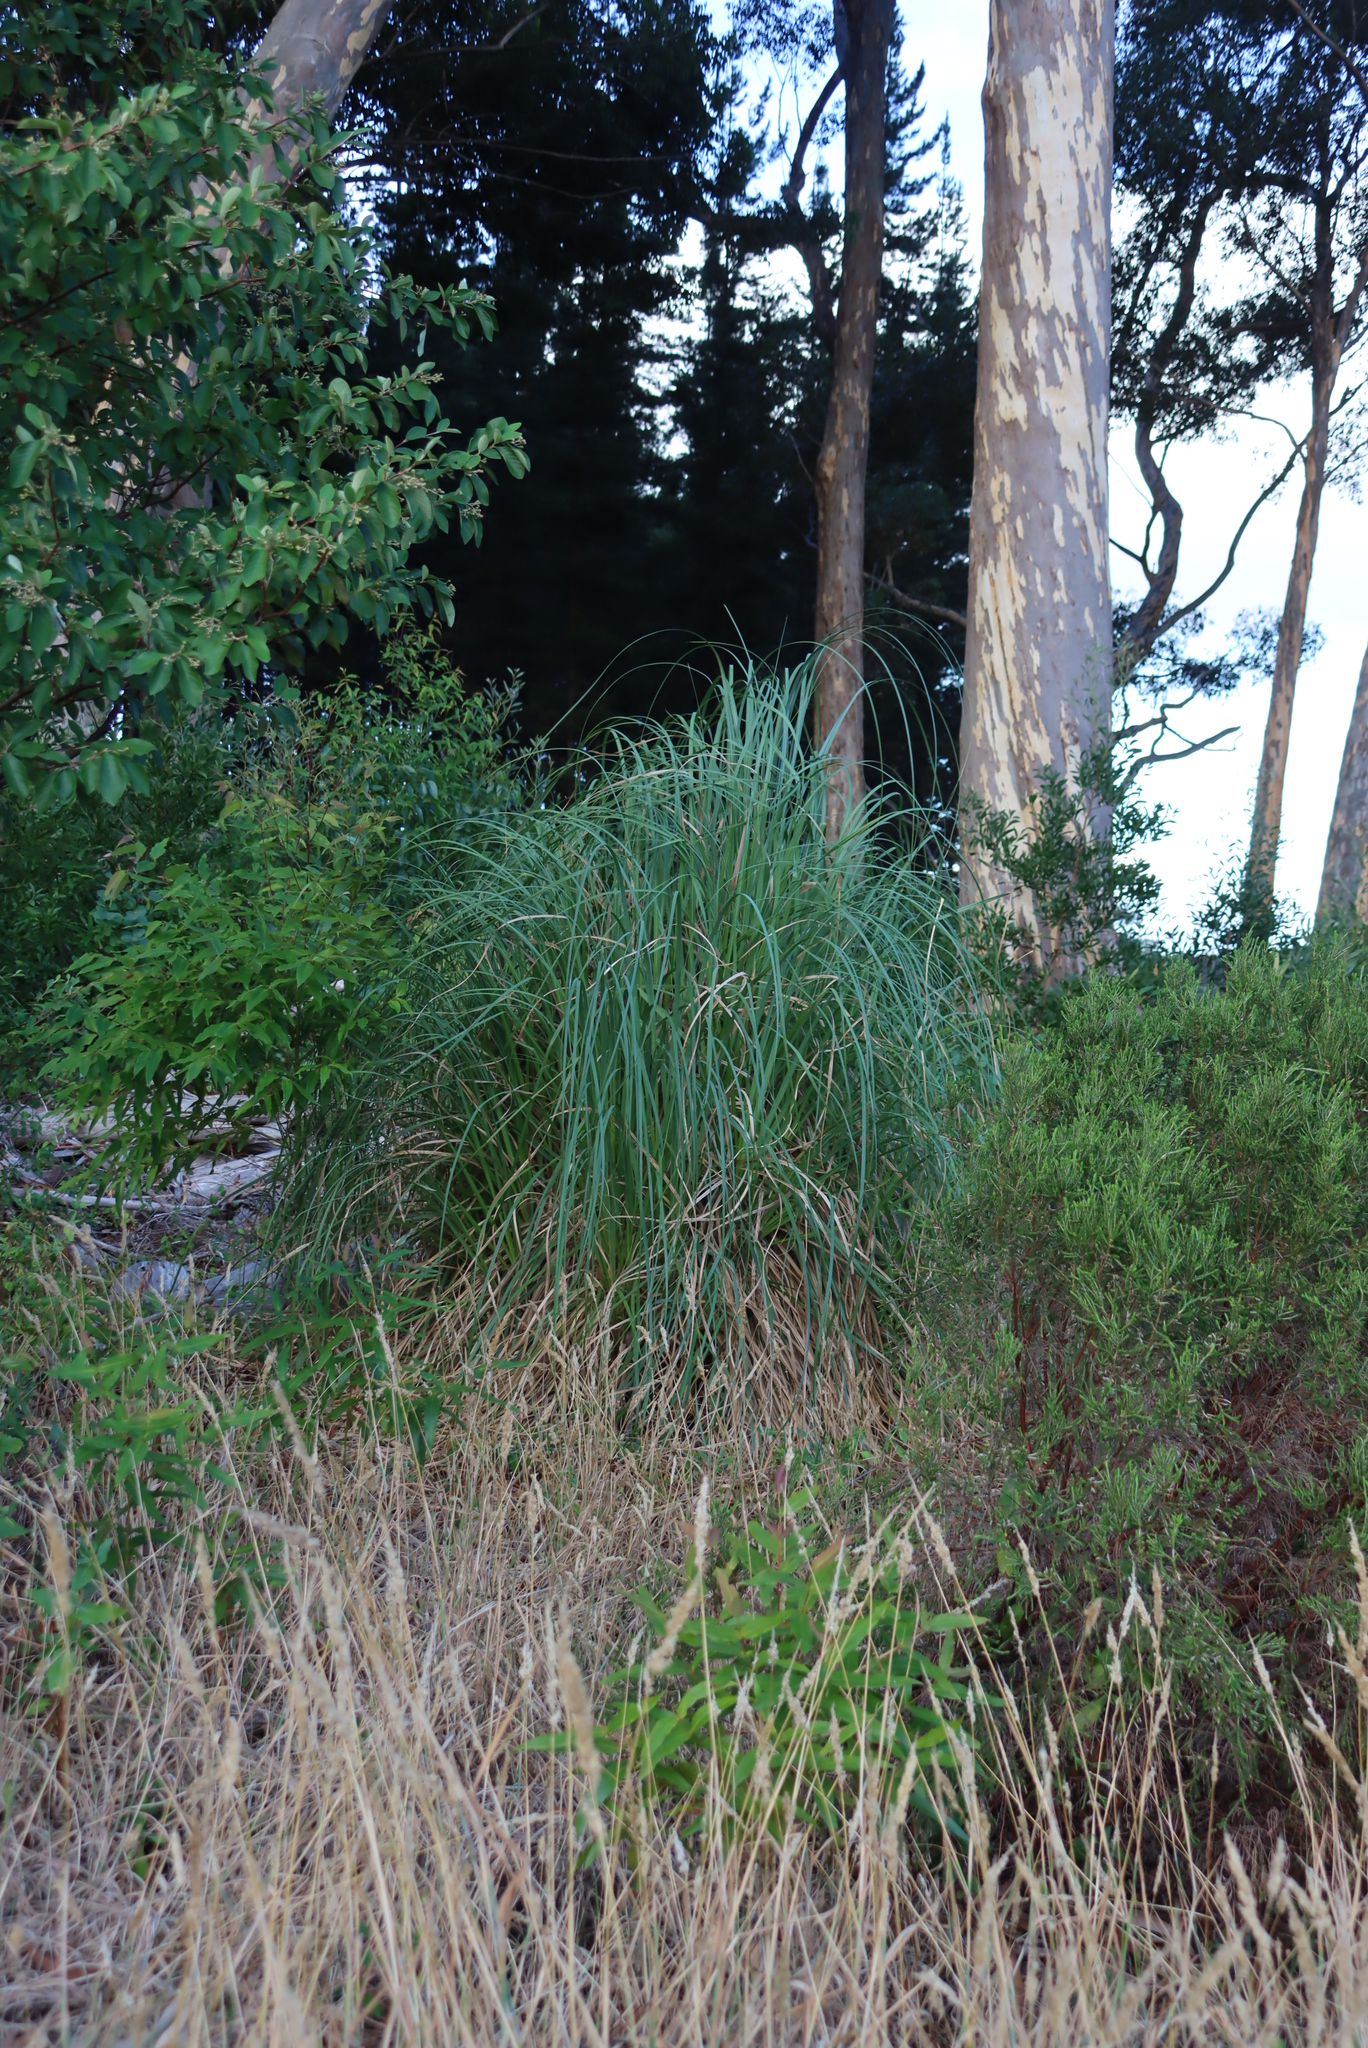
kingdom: Plantae
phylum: Tracheophyta
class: Liliopsida
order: Poales
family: Poaceae
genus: Cortaderia
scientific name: Cortaderia selloana
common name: Uruguayan pampas grass
